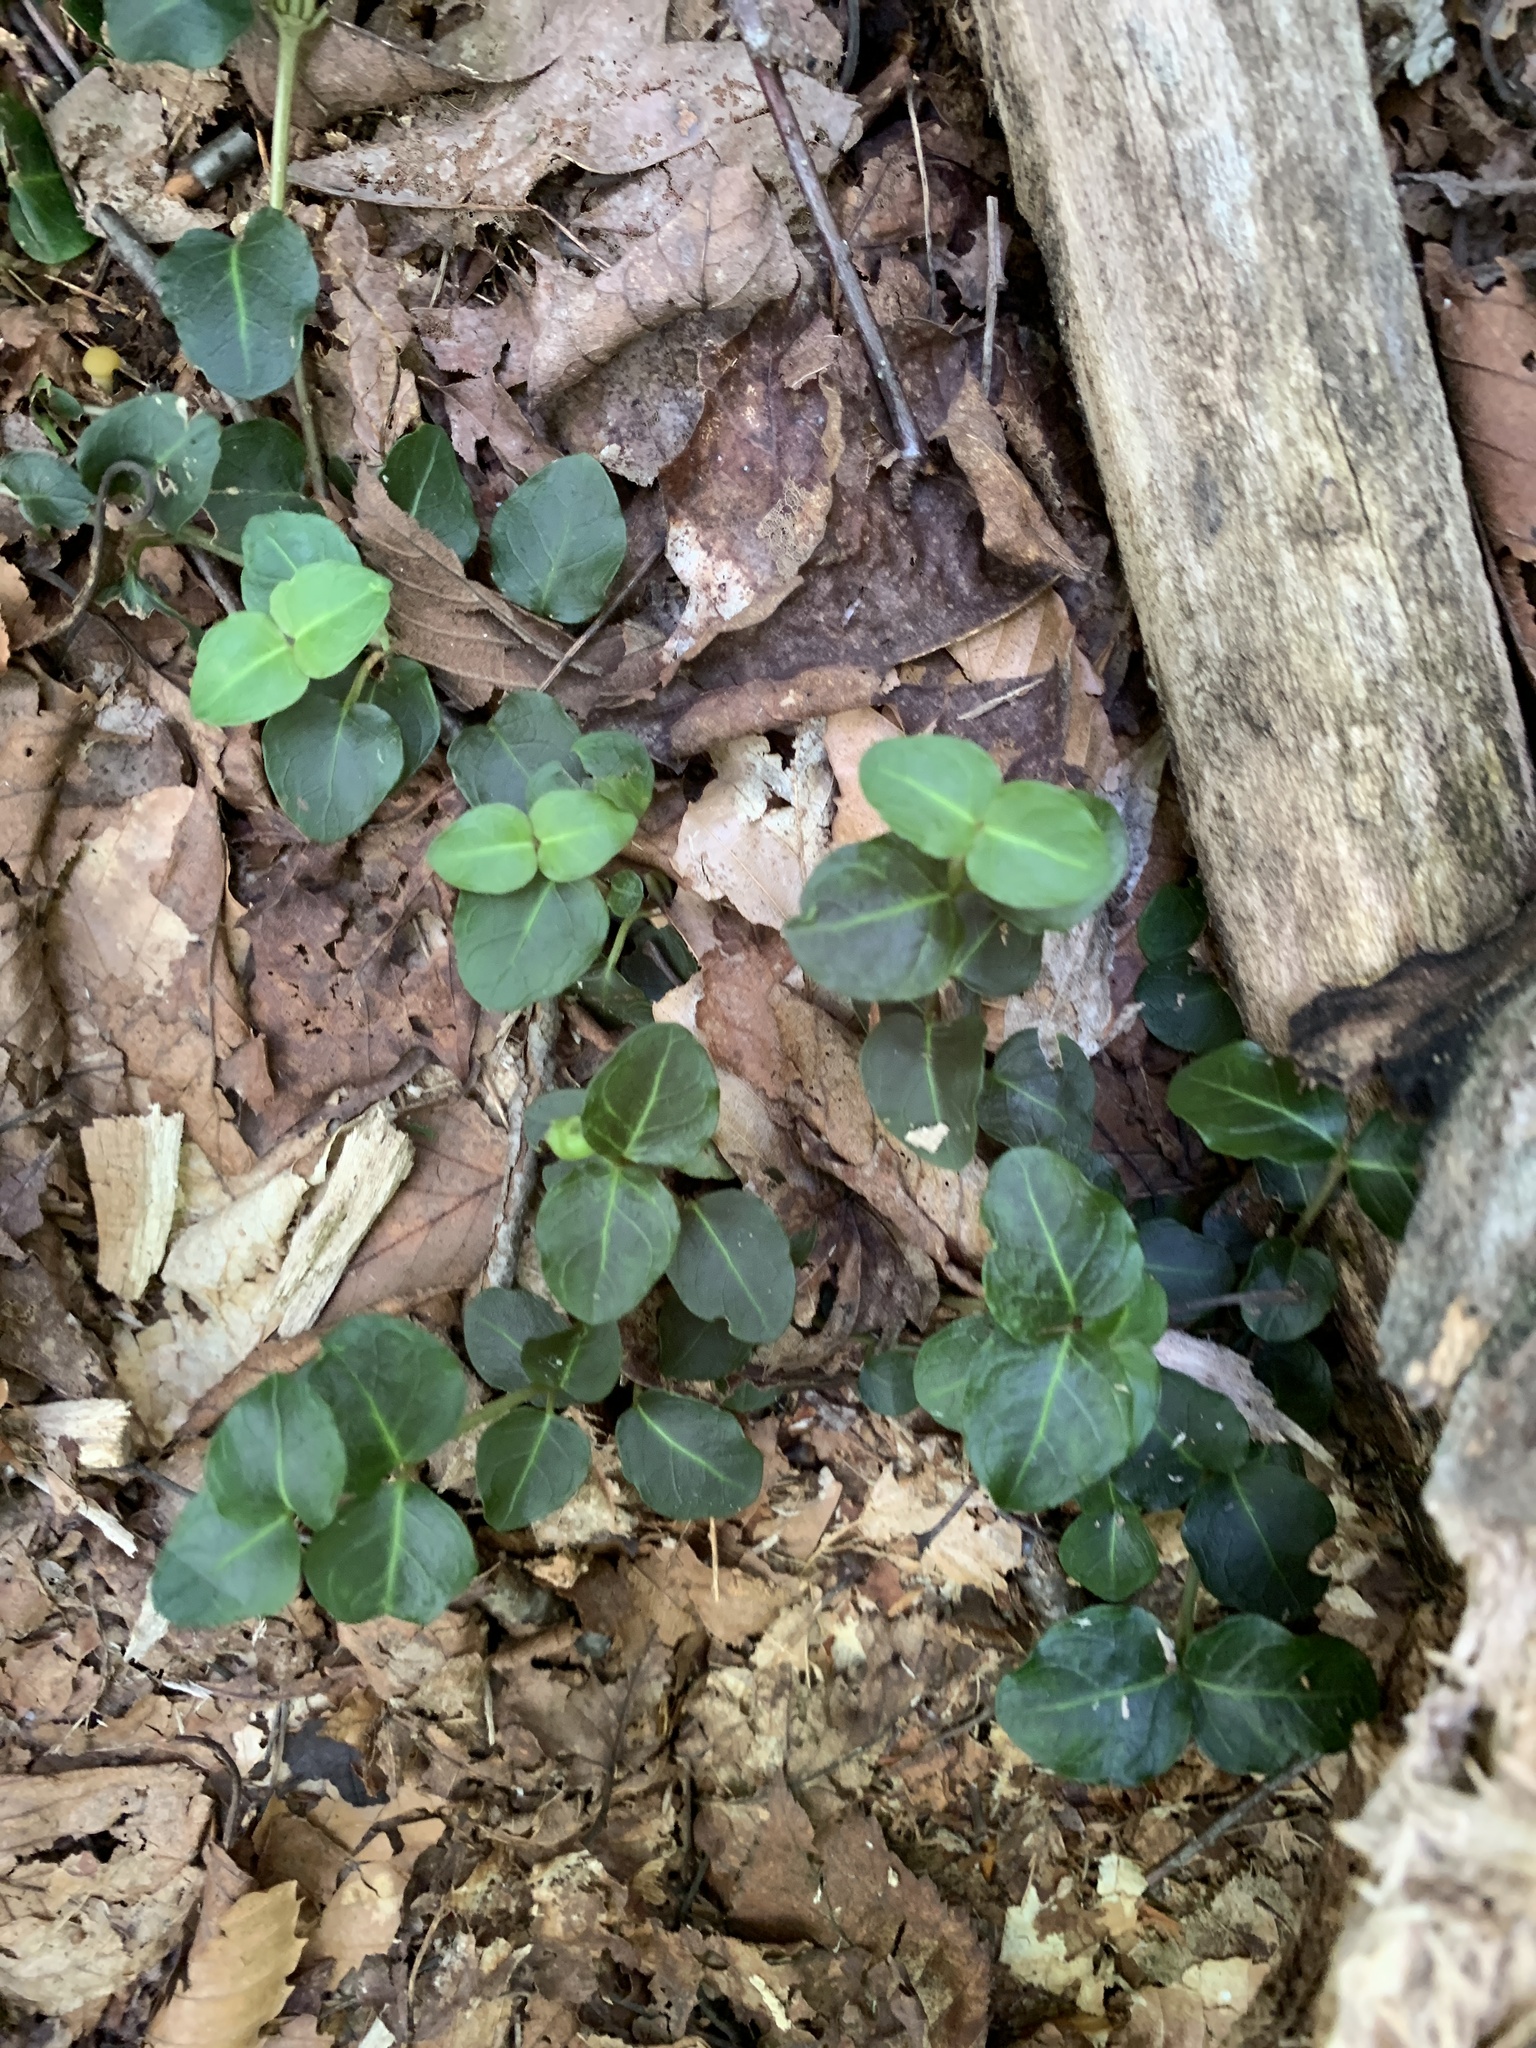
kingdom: Plantae
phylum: Tracheophyta
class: Magnoliopsida
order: Gentianales
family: Rubiaceae
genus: Mitchella
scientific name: Mitchella repens
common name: Partridge-berry
